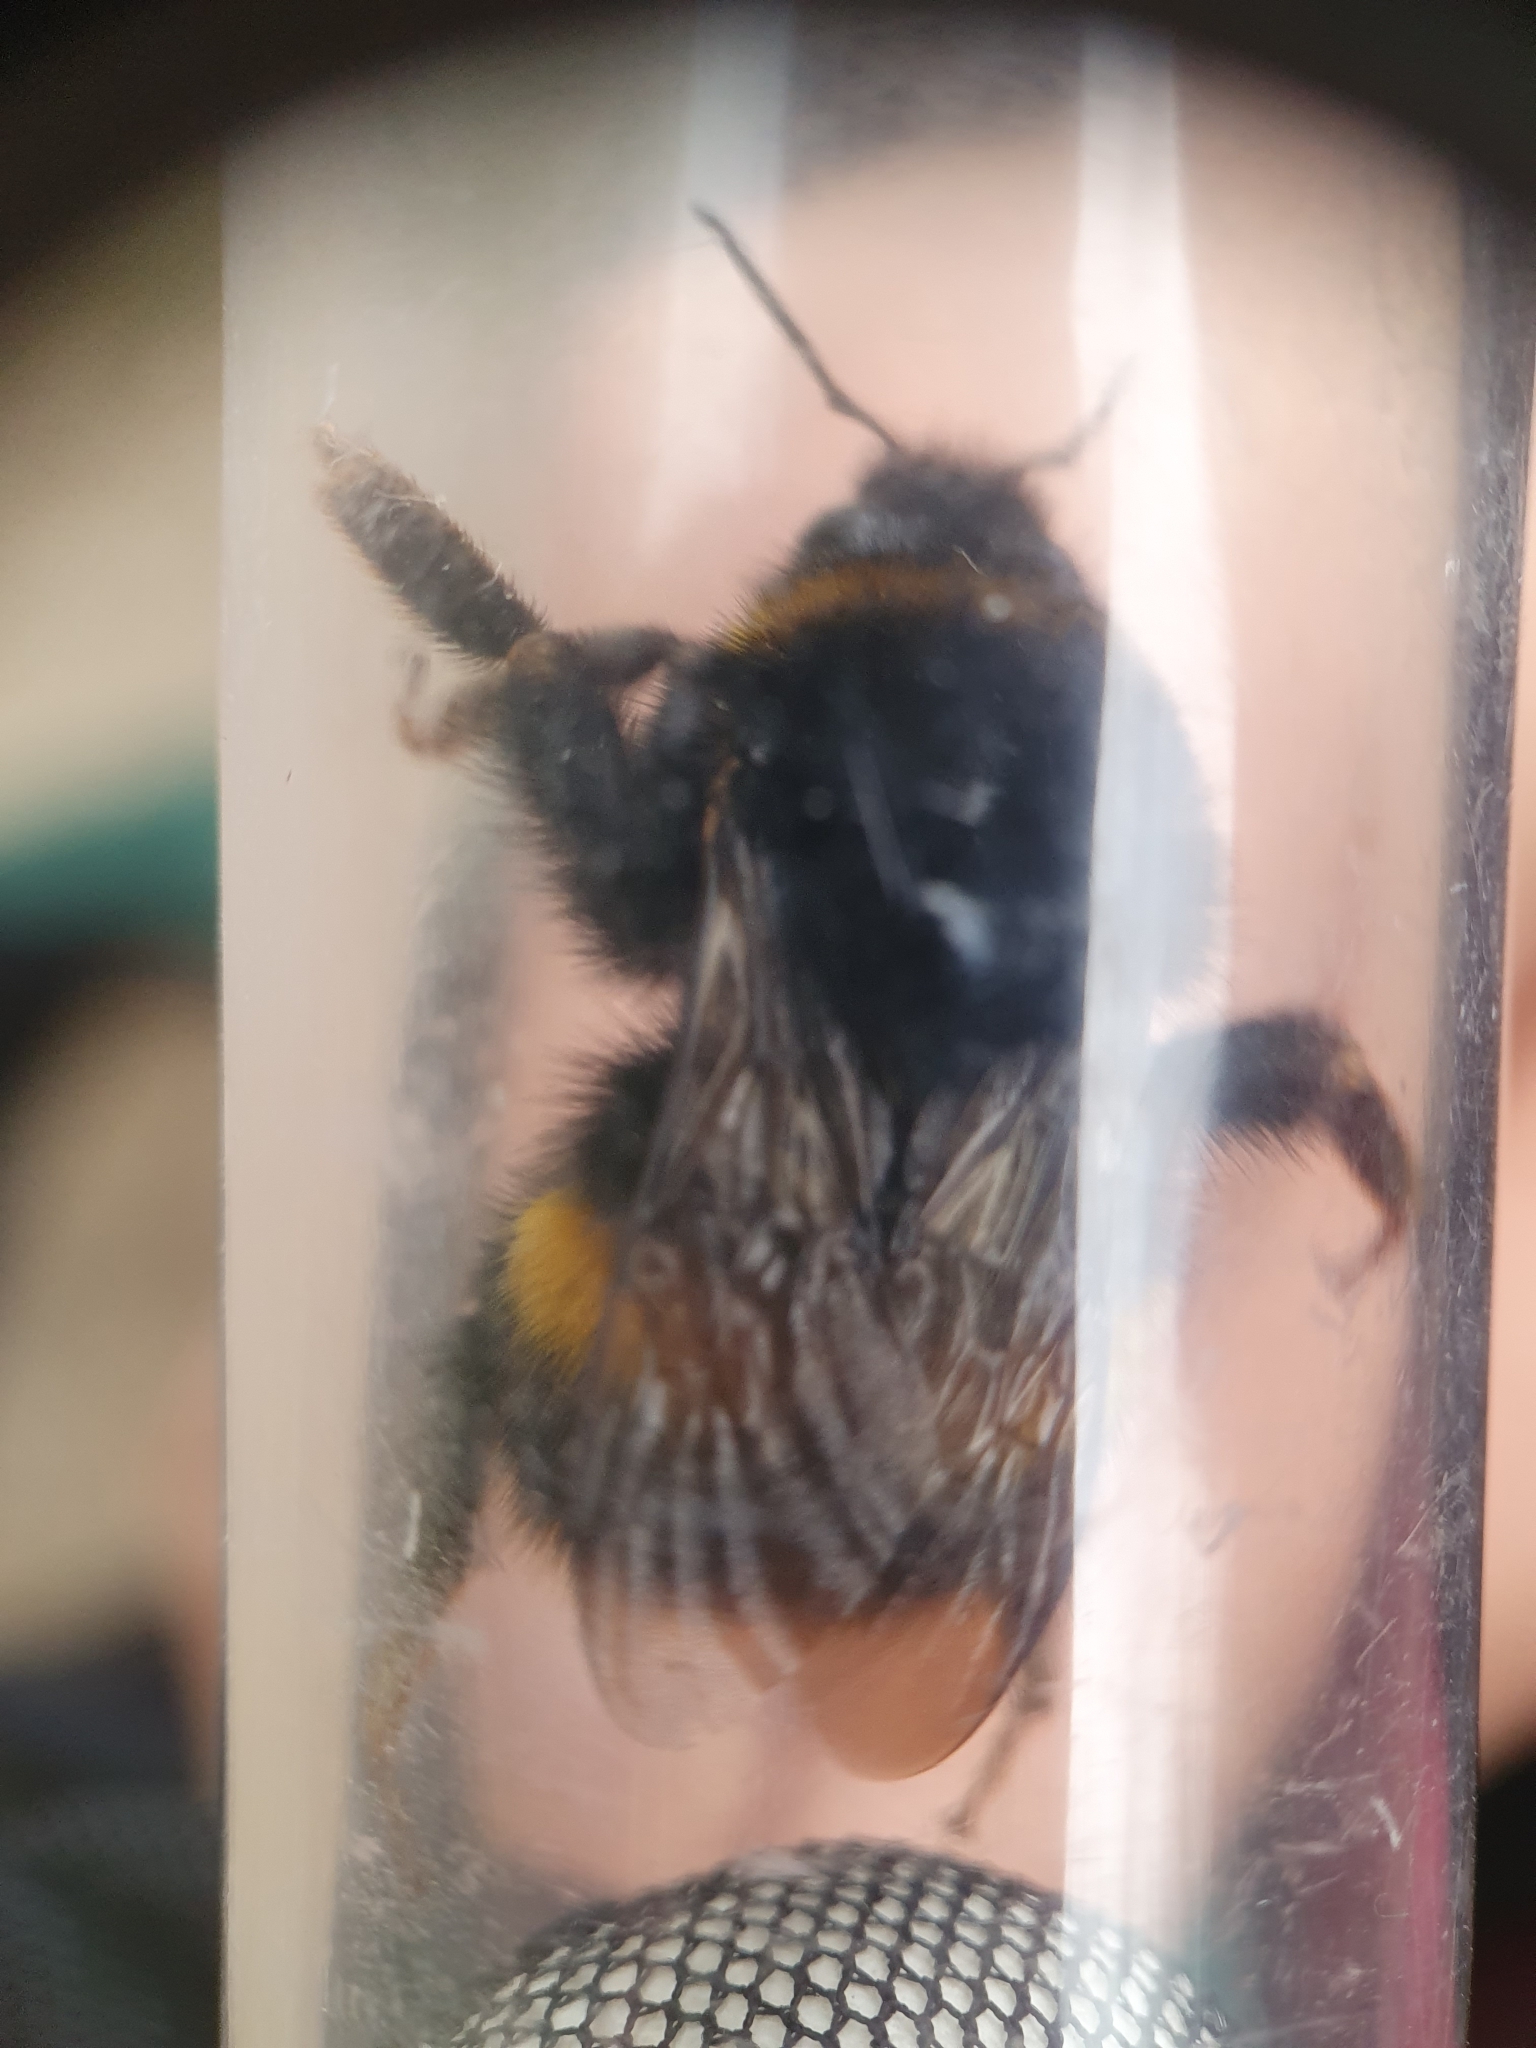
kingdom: Animalia
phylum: Arthropoda
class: Insecta
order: Hymenoptera
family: Apidae
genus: Bombus
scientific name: Bombus terrestris
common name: Buff-tailed bumblebee
